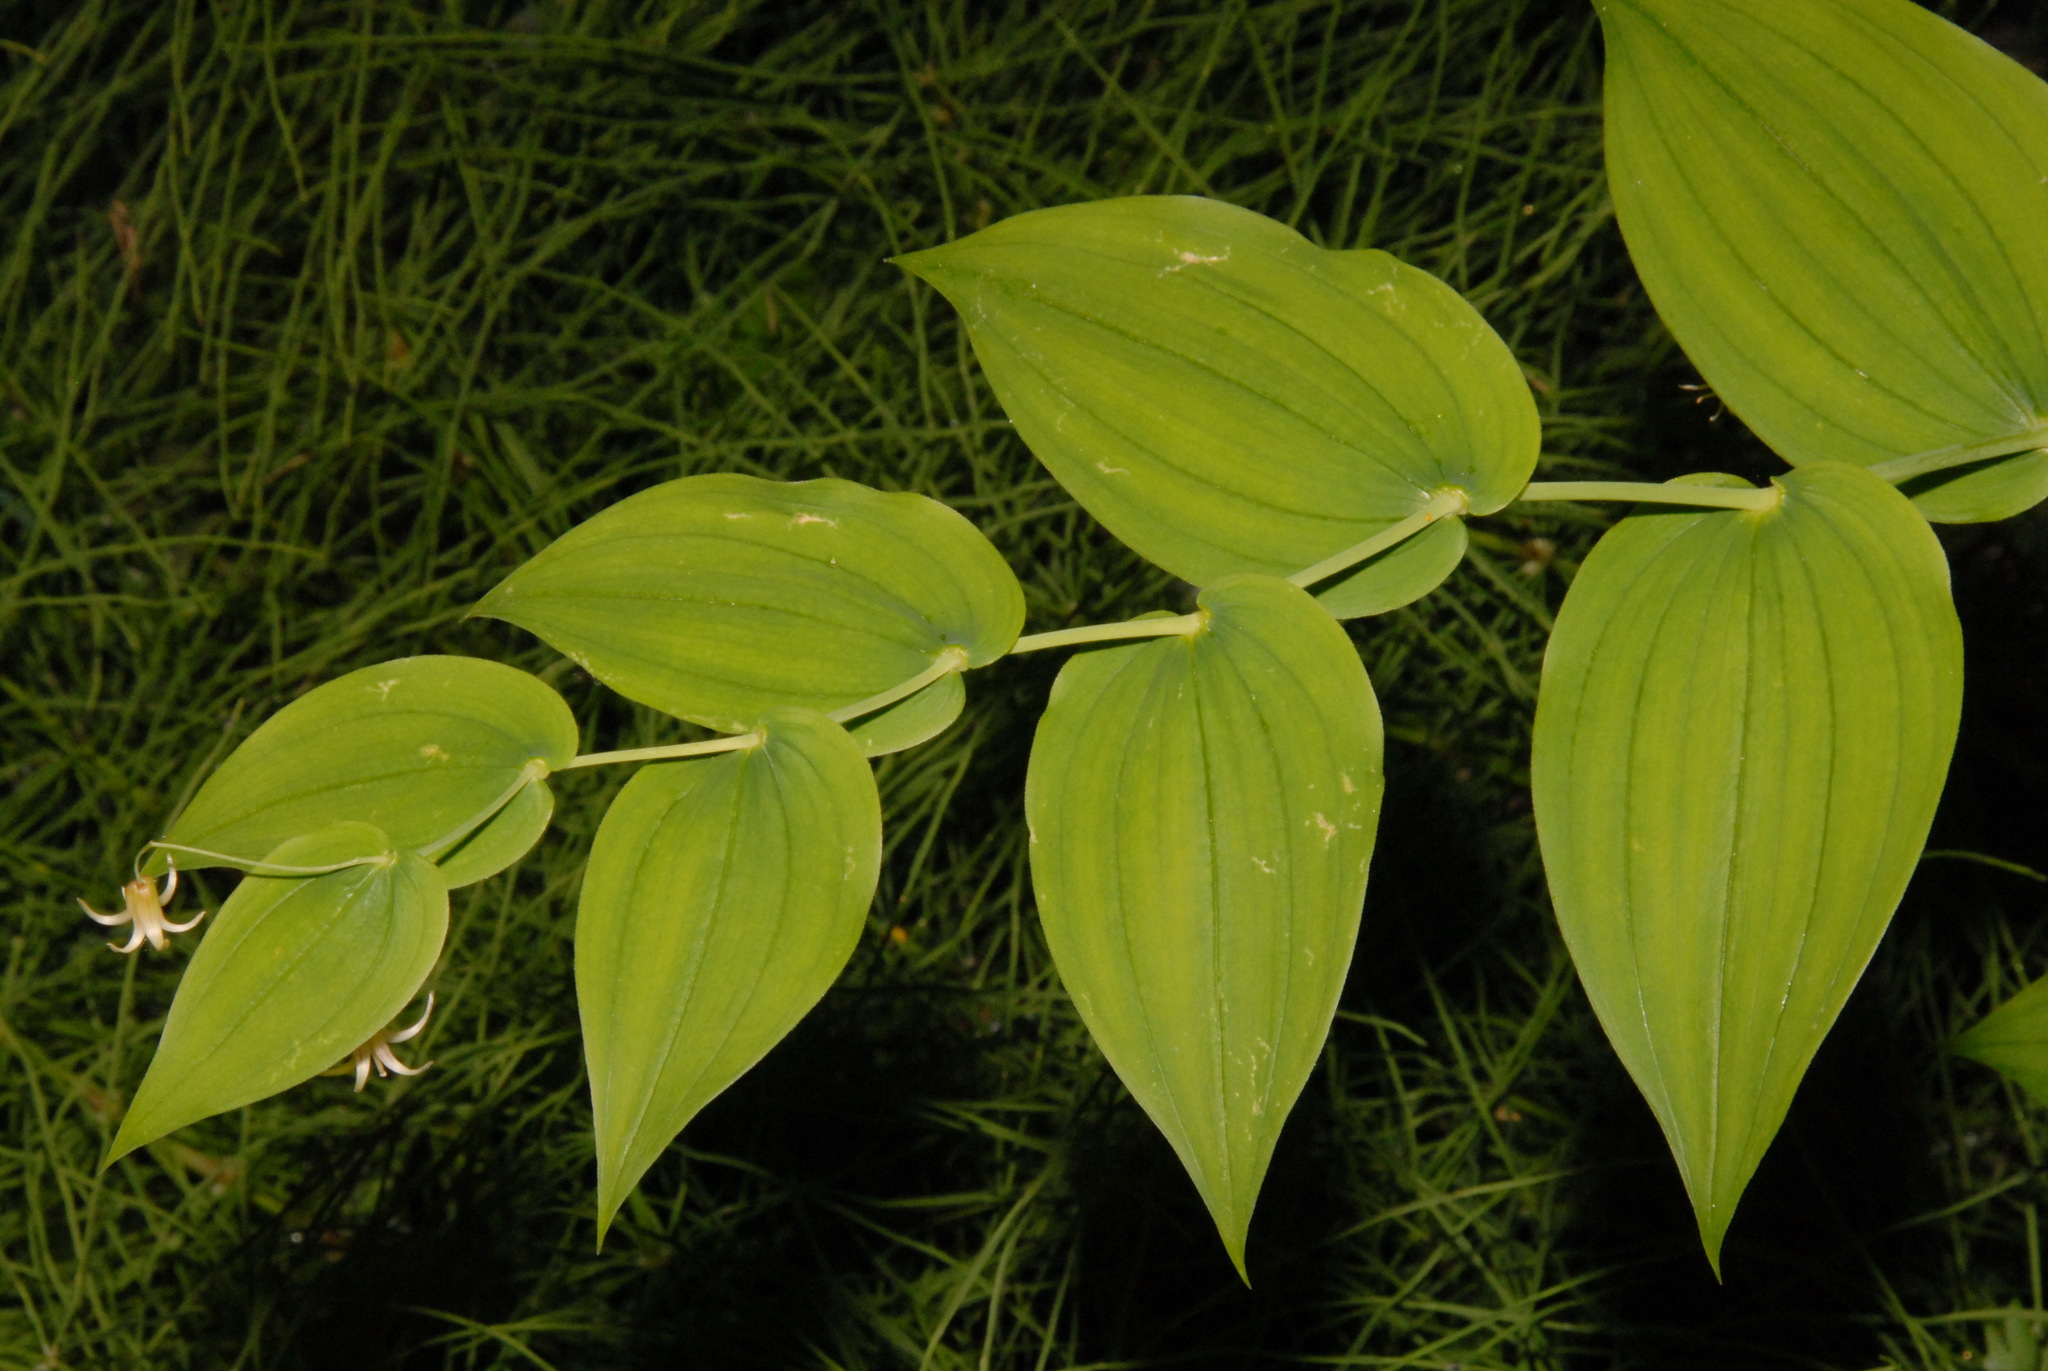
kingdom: Plantae
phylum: Tracheophyta
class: Liliopsida
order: Liliales
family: Liliaceae
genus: Streptopus
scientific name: Streptopus amplexifolius
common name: Clasp twisted stalk
